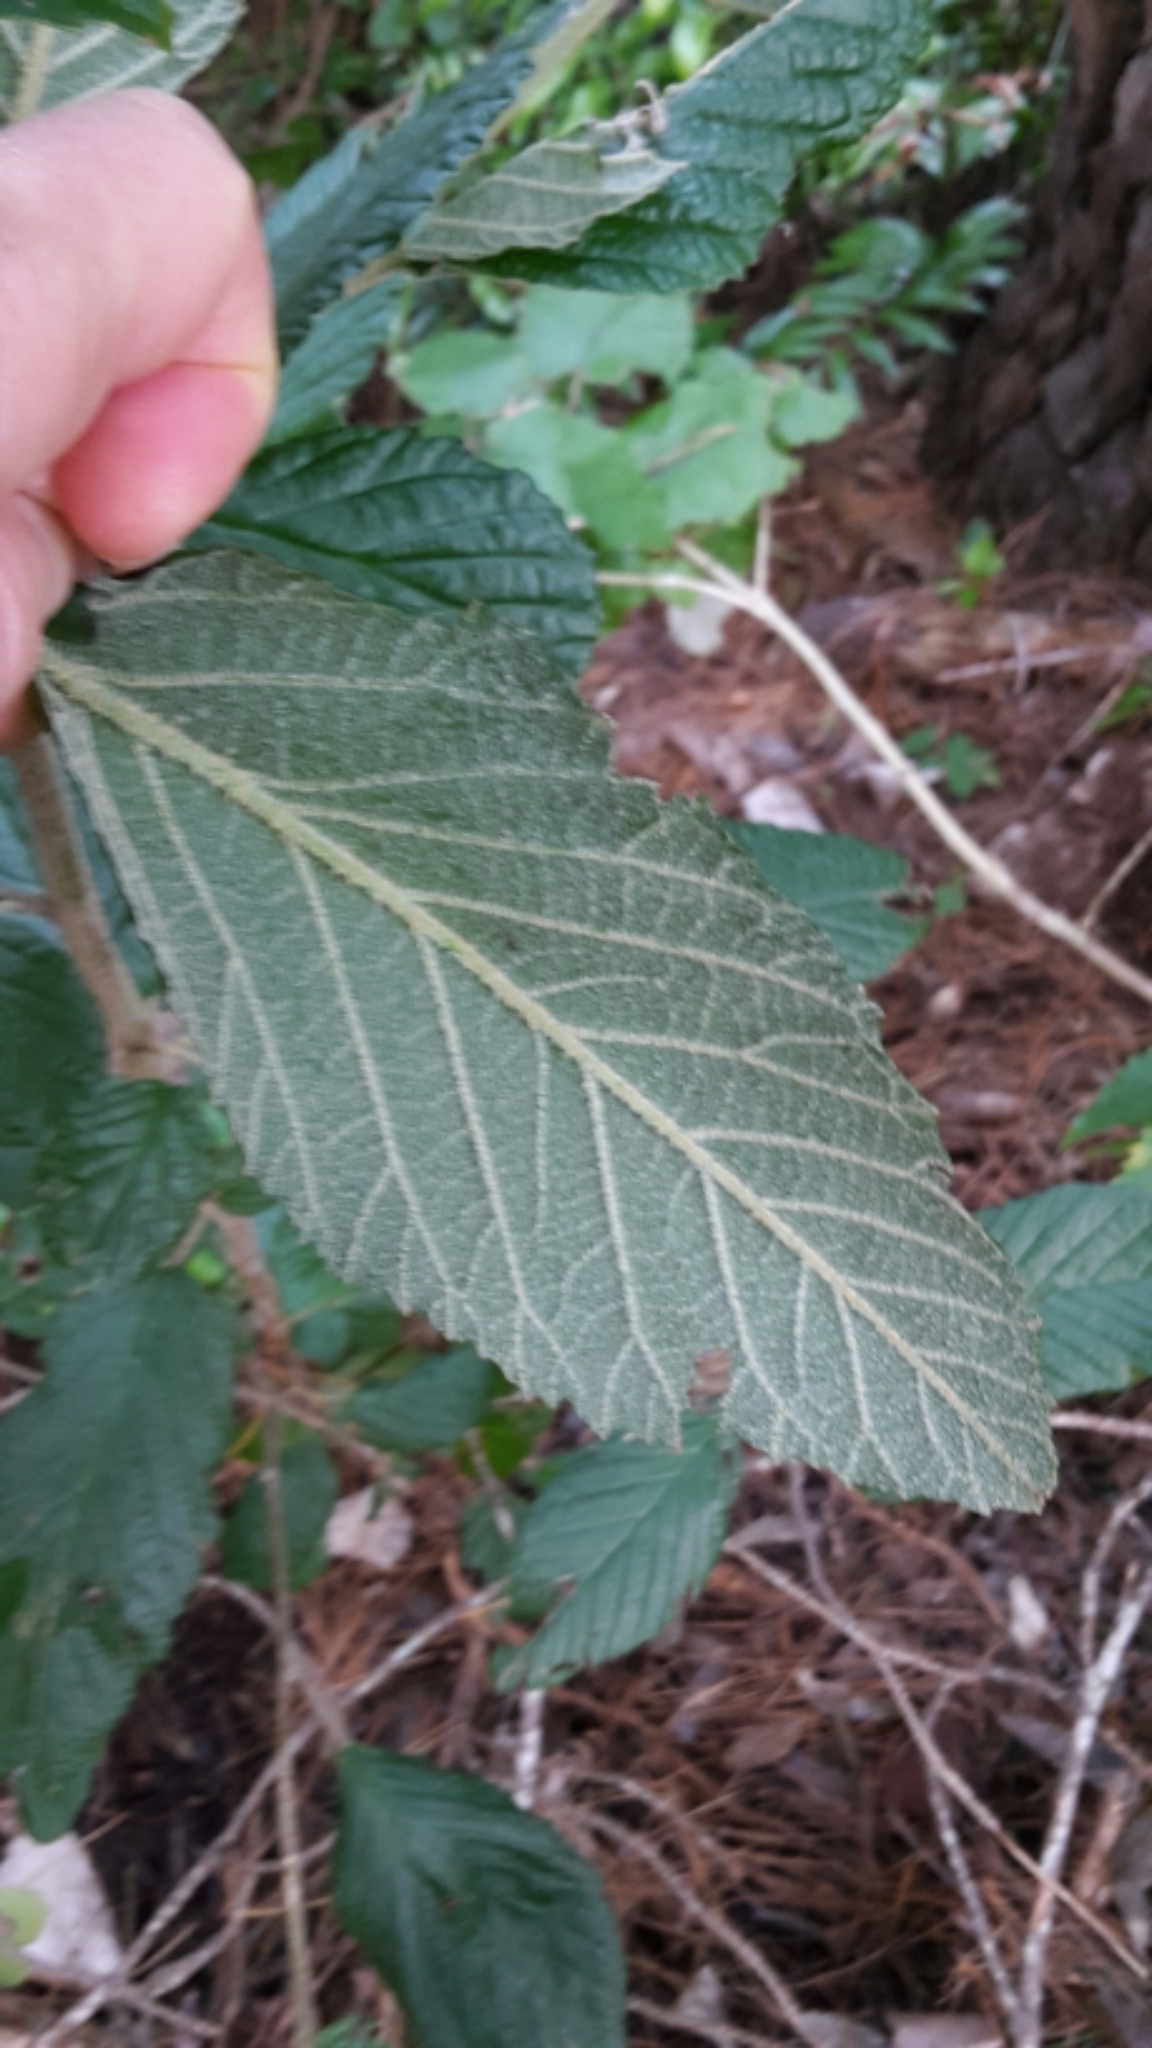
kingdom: Plantae
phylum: Tracheophyta
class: Magnoliopsida
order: Rosales
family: Rhamnaceae
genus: Pomaderris
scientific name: Pomaderris aspera
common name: Hazel pomaderris
